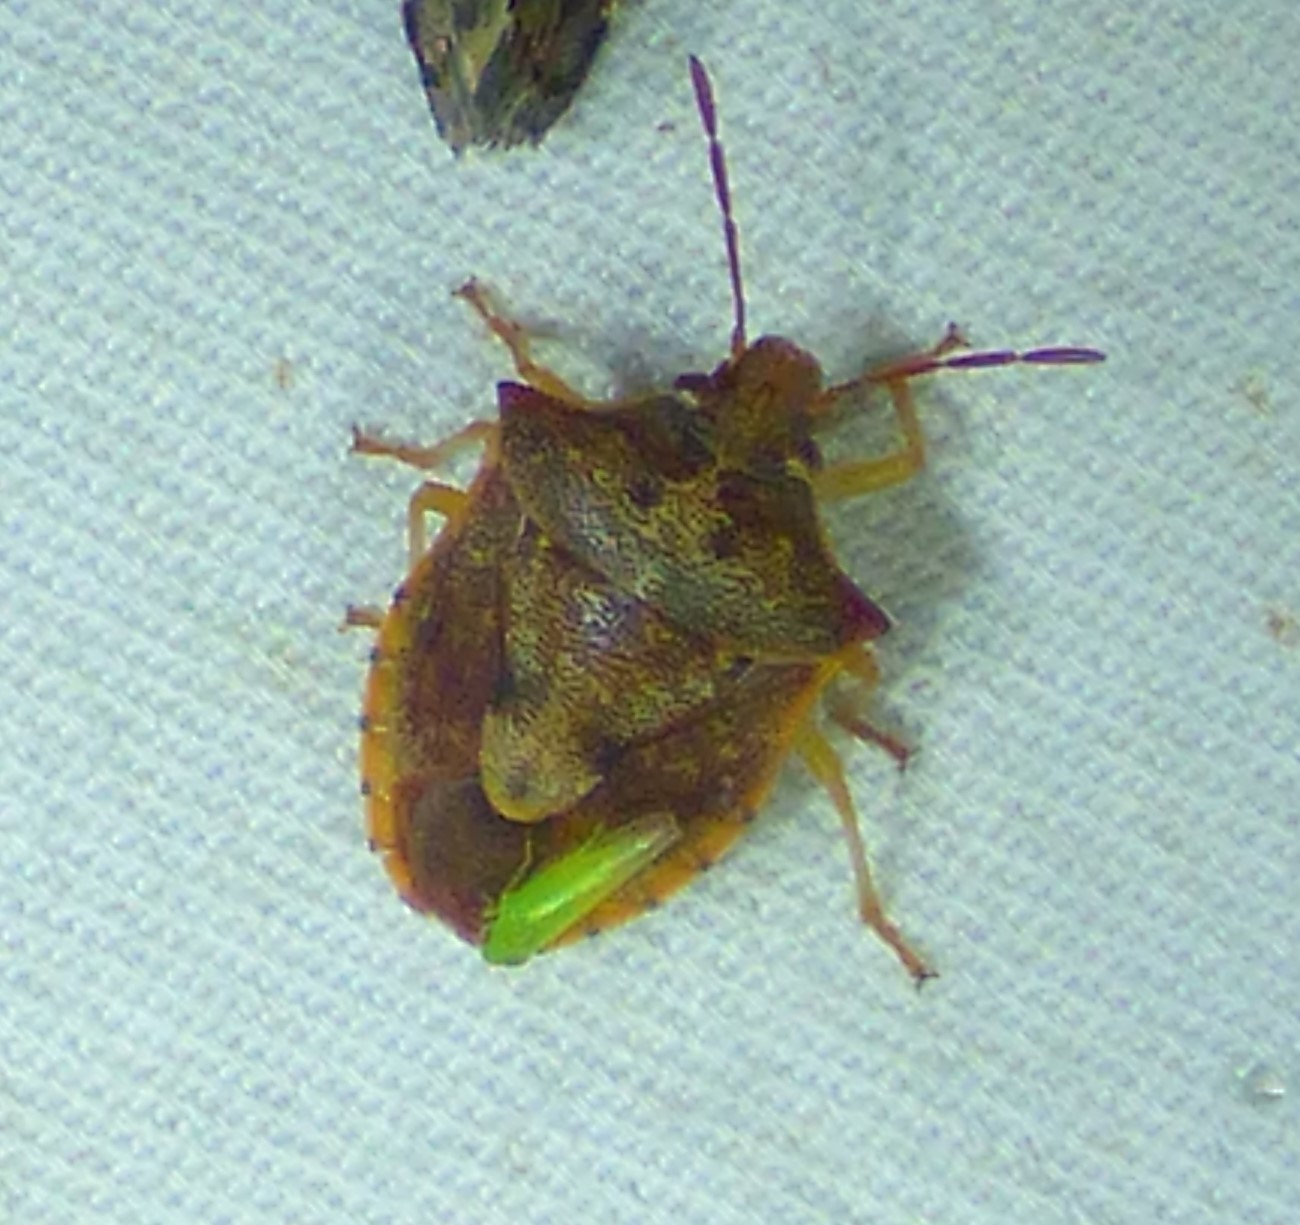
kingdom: Animalia
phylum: Arthropoda
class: Insecta
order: Hemiptera
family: Pentatomidae
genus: Dendrocoris
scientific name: Dendrocoris humeralis
